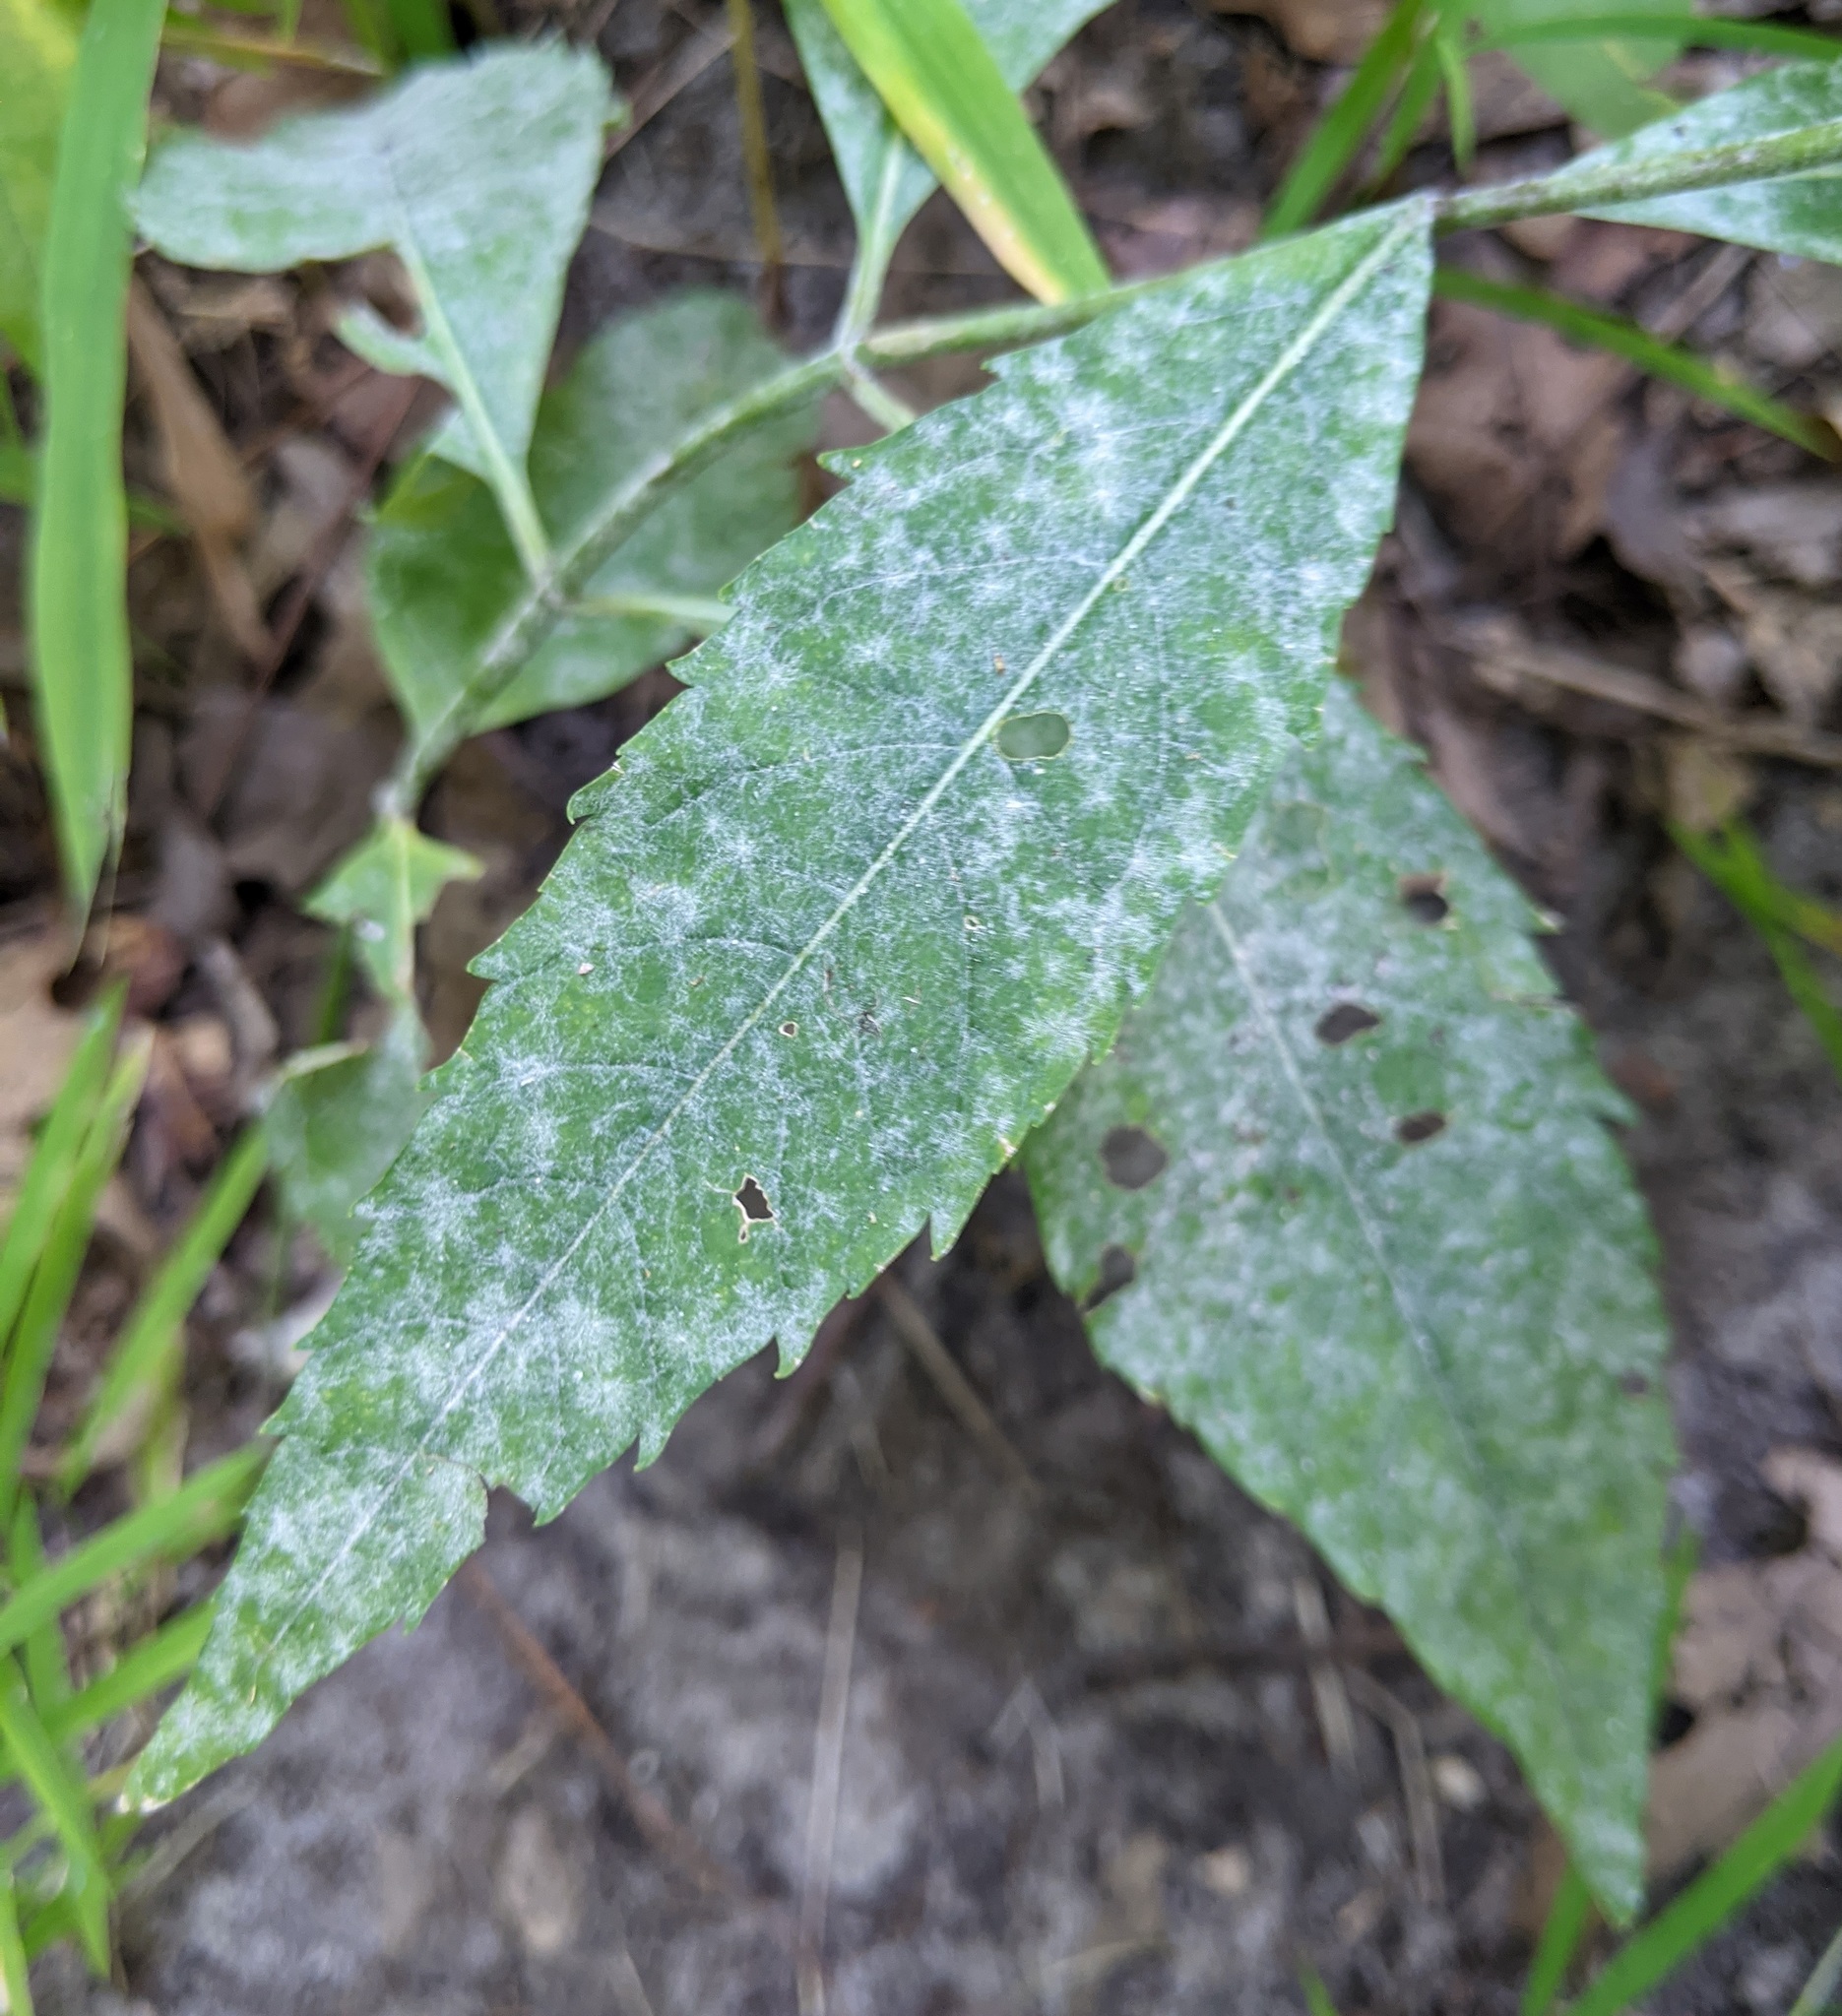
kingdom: Plantae
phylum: Tracheophyta
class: Magnoliopsida
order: Lamiales
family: Plantaginaceae
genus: Chelone
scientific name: Chelone glabra
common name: Snakehead
